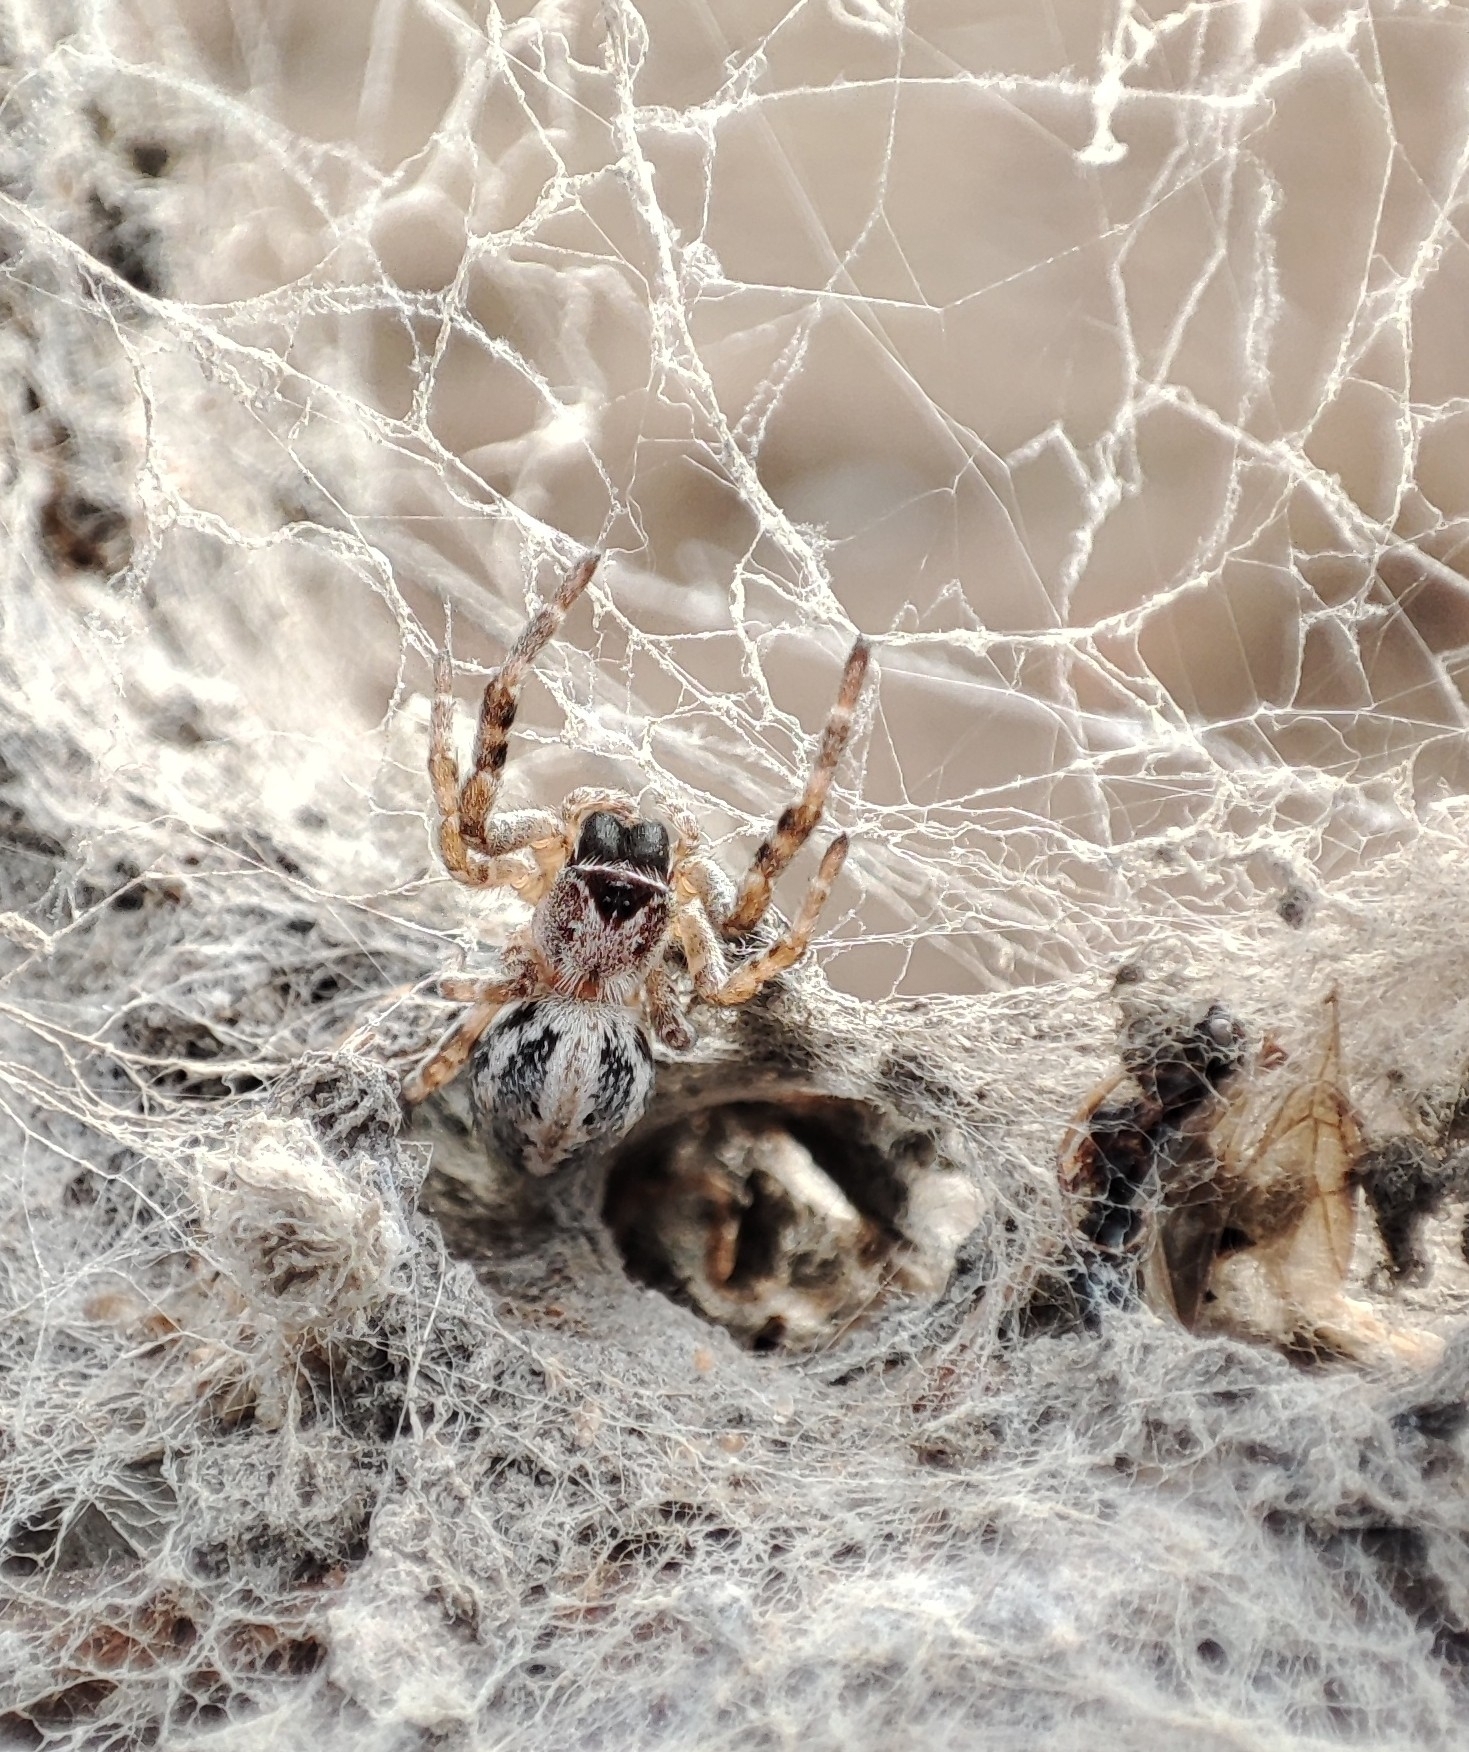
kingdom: Animalia
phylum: Arthropoda
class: Arachnida
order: Araneae
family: Eresidae
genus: Stegodyphus
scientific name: Stegodyphus sarasinorum
